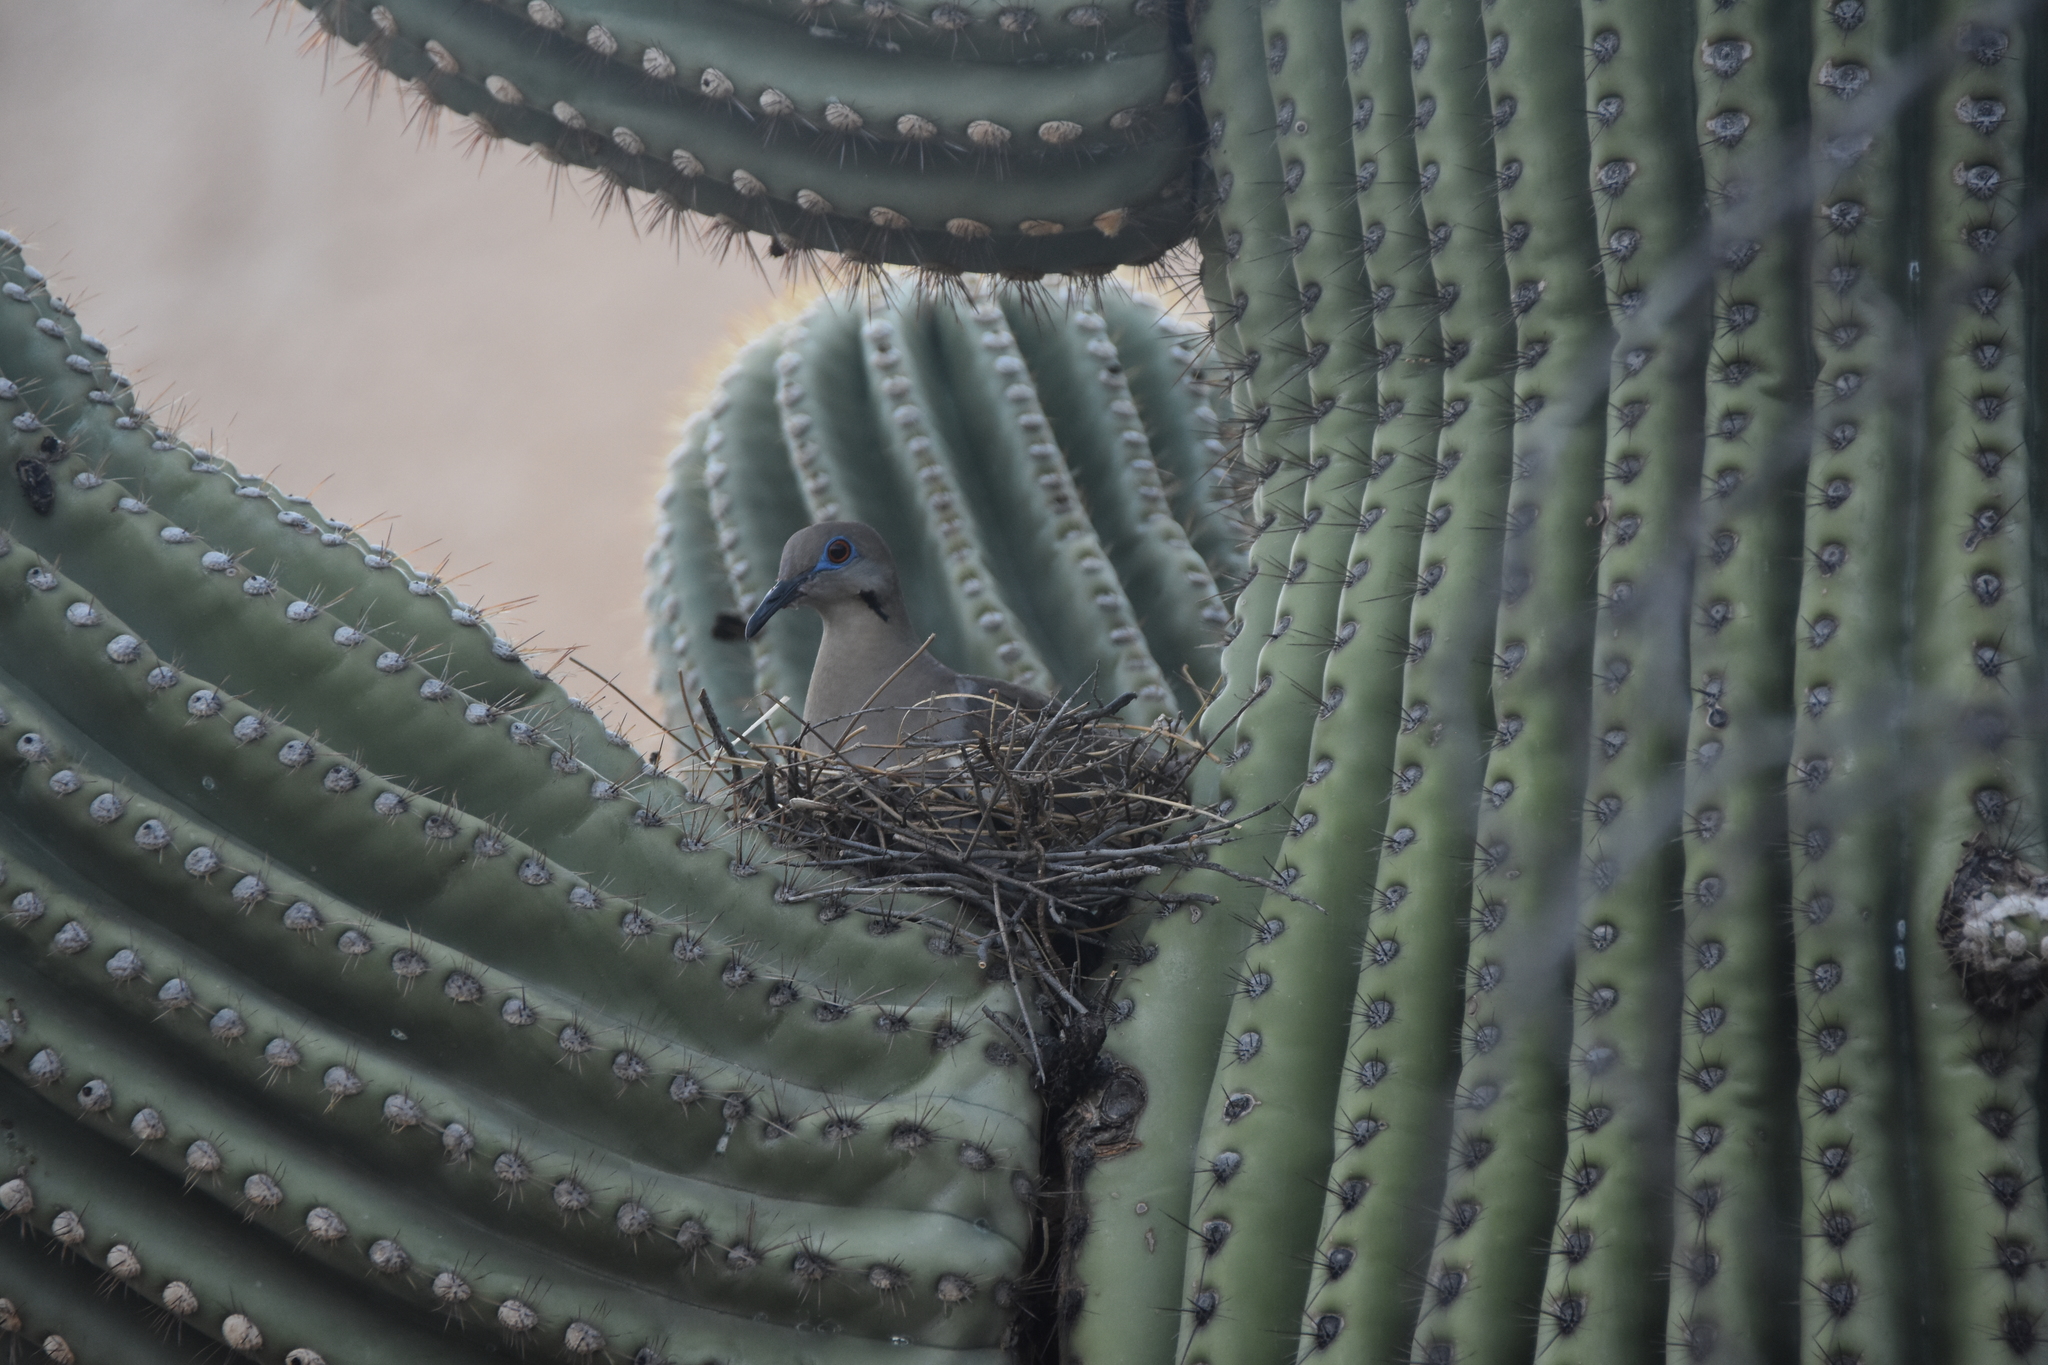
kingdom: Animalia
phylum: Chordata
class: Aves
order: Columbiformes
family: Columbidae
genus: Zenaida
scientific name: Zenaida asiatica
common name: White-winged dove
